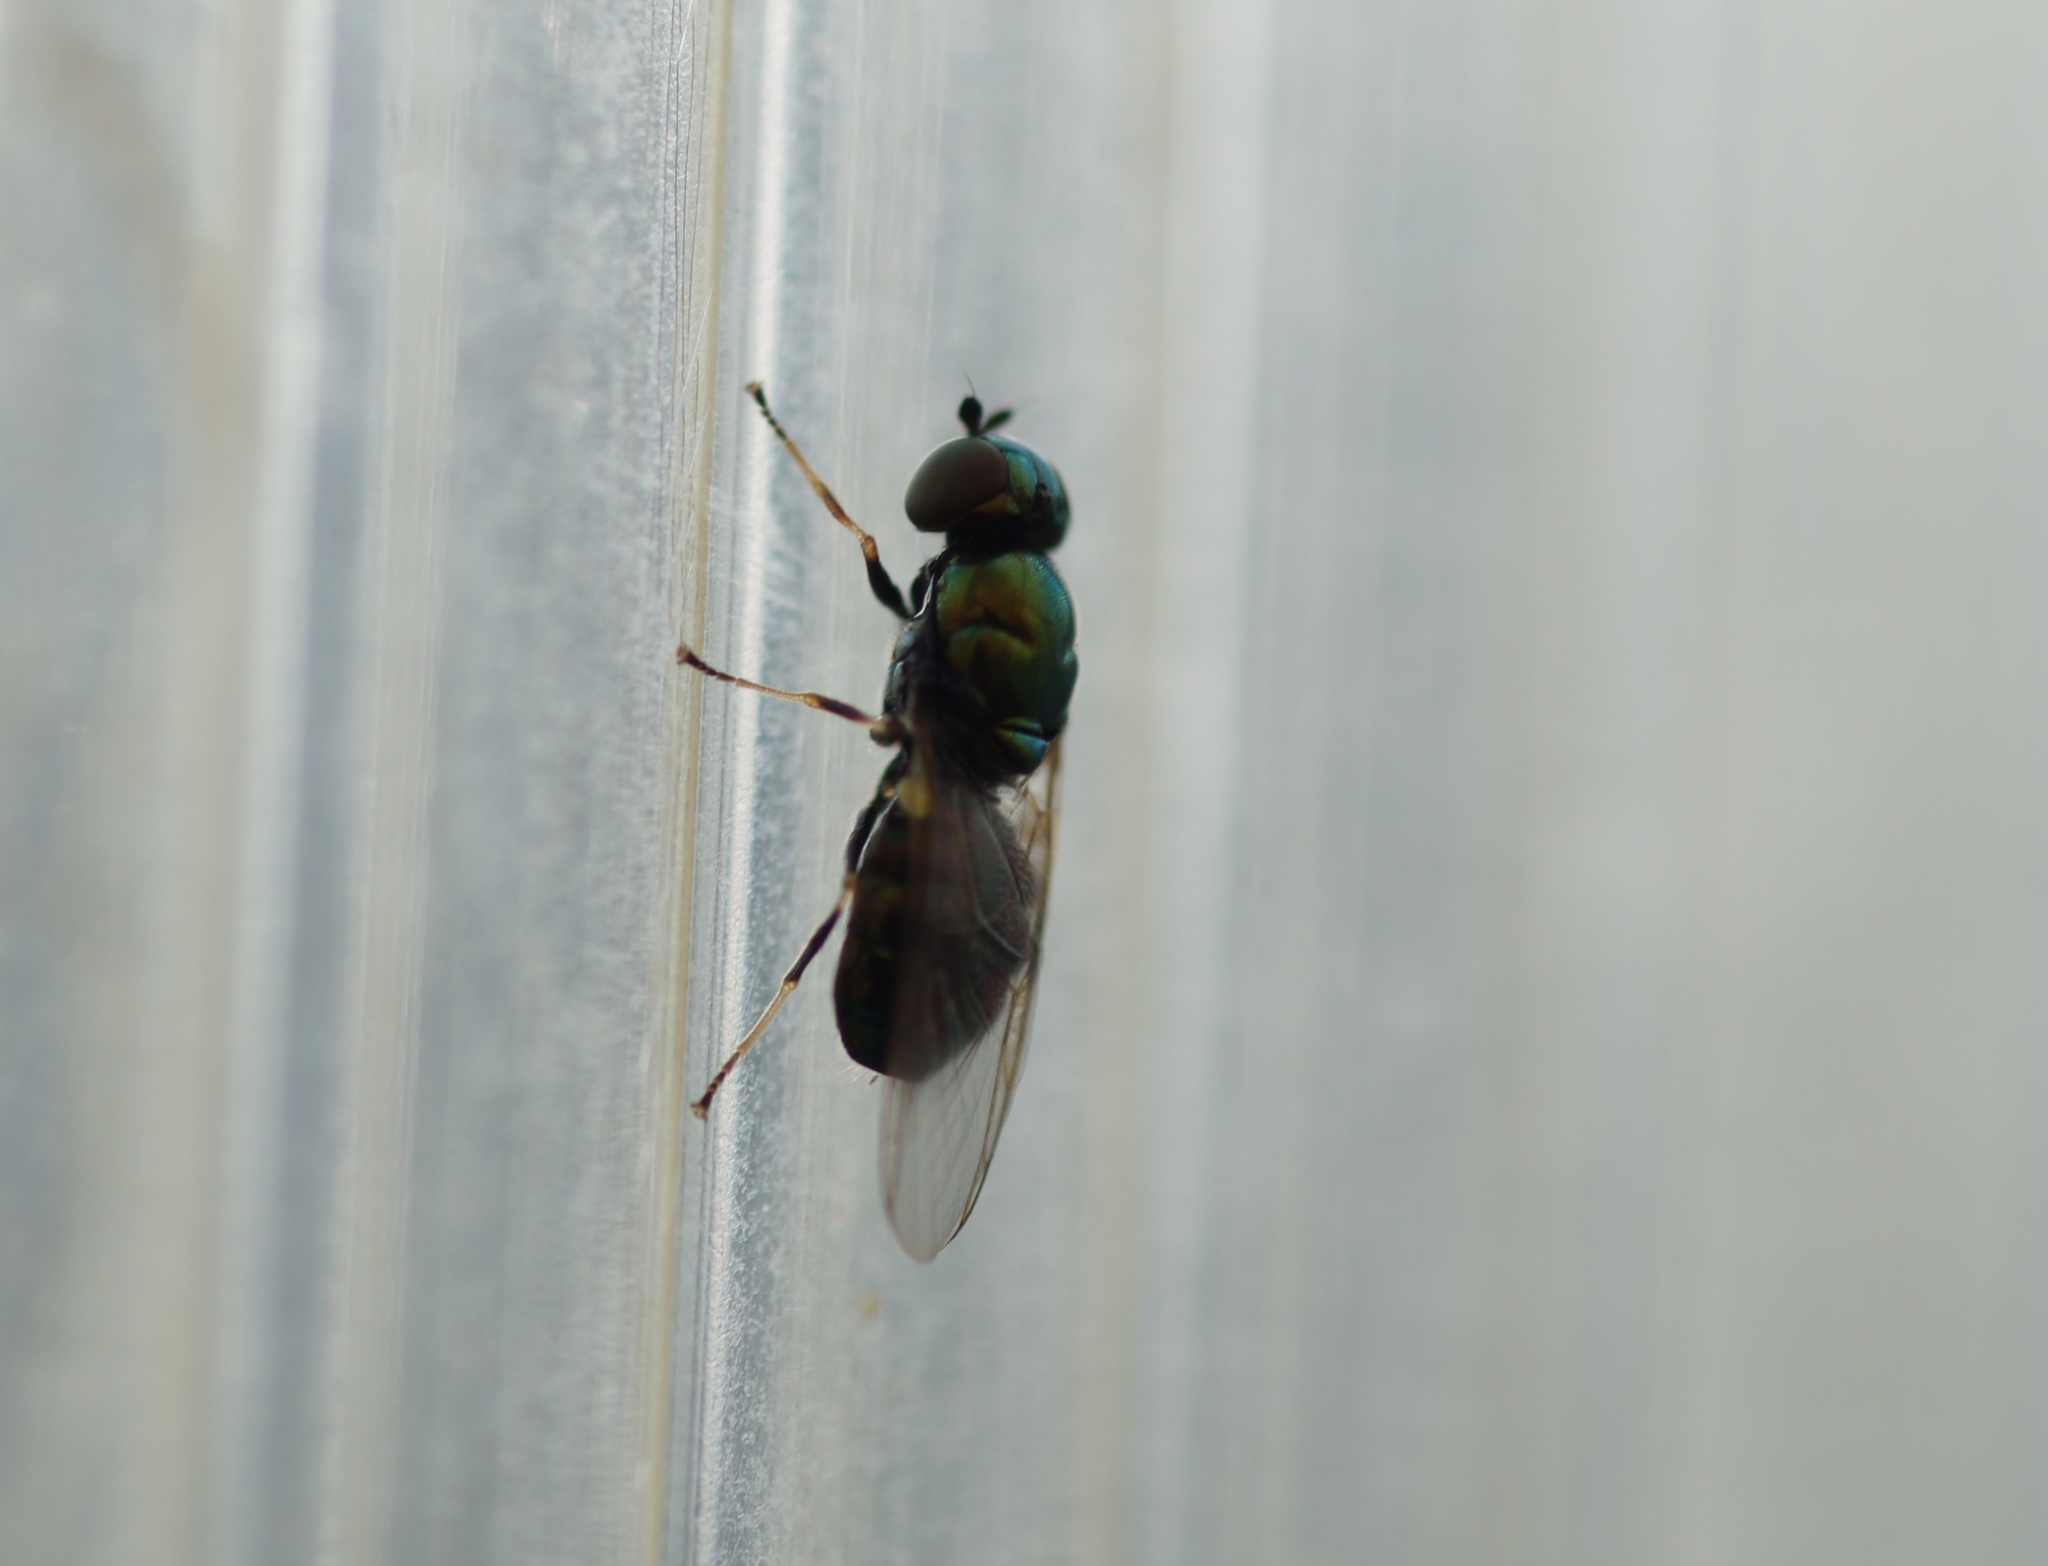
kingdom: Animalia
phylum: Arthropoda
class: Insecta
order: Diptera
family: Stratiomyidae
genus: Microchrysa
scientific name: Microchrysa polita
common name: Black-horned gem
